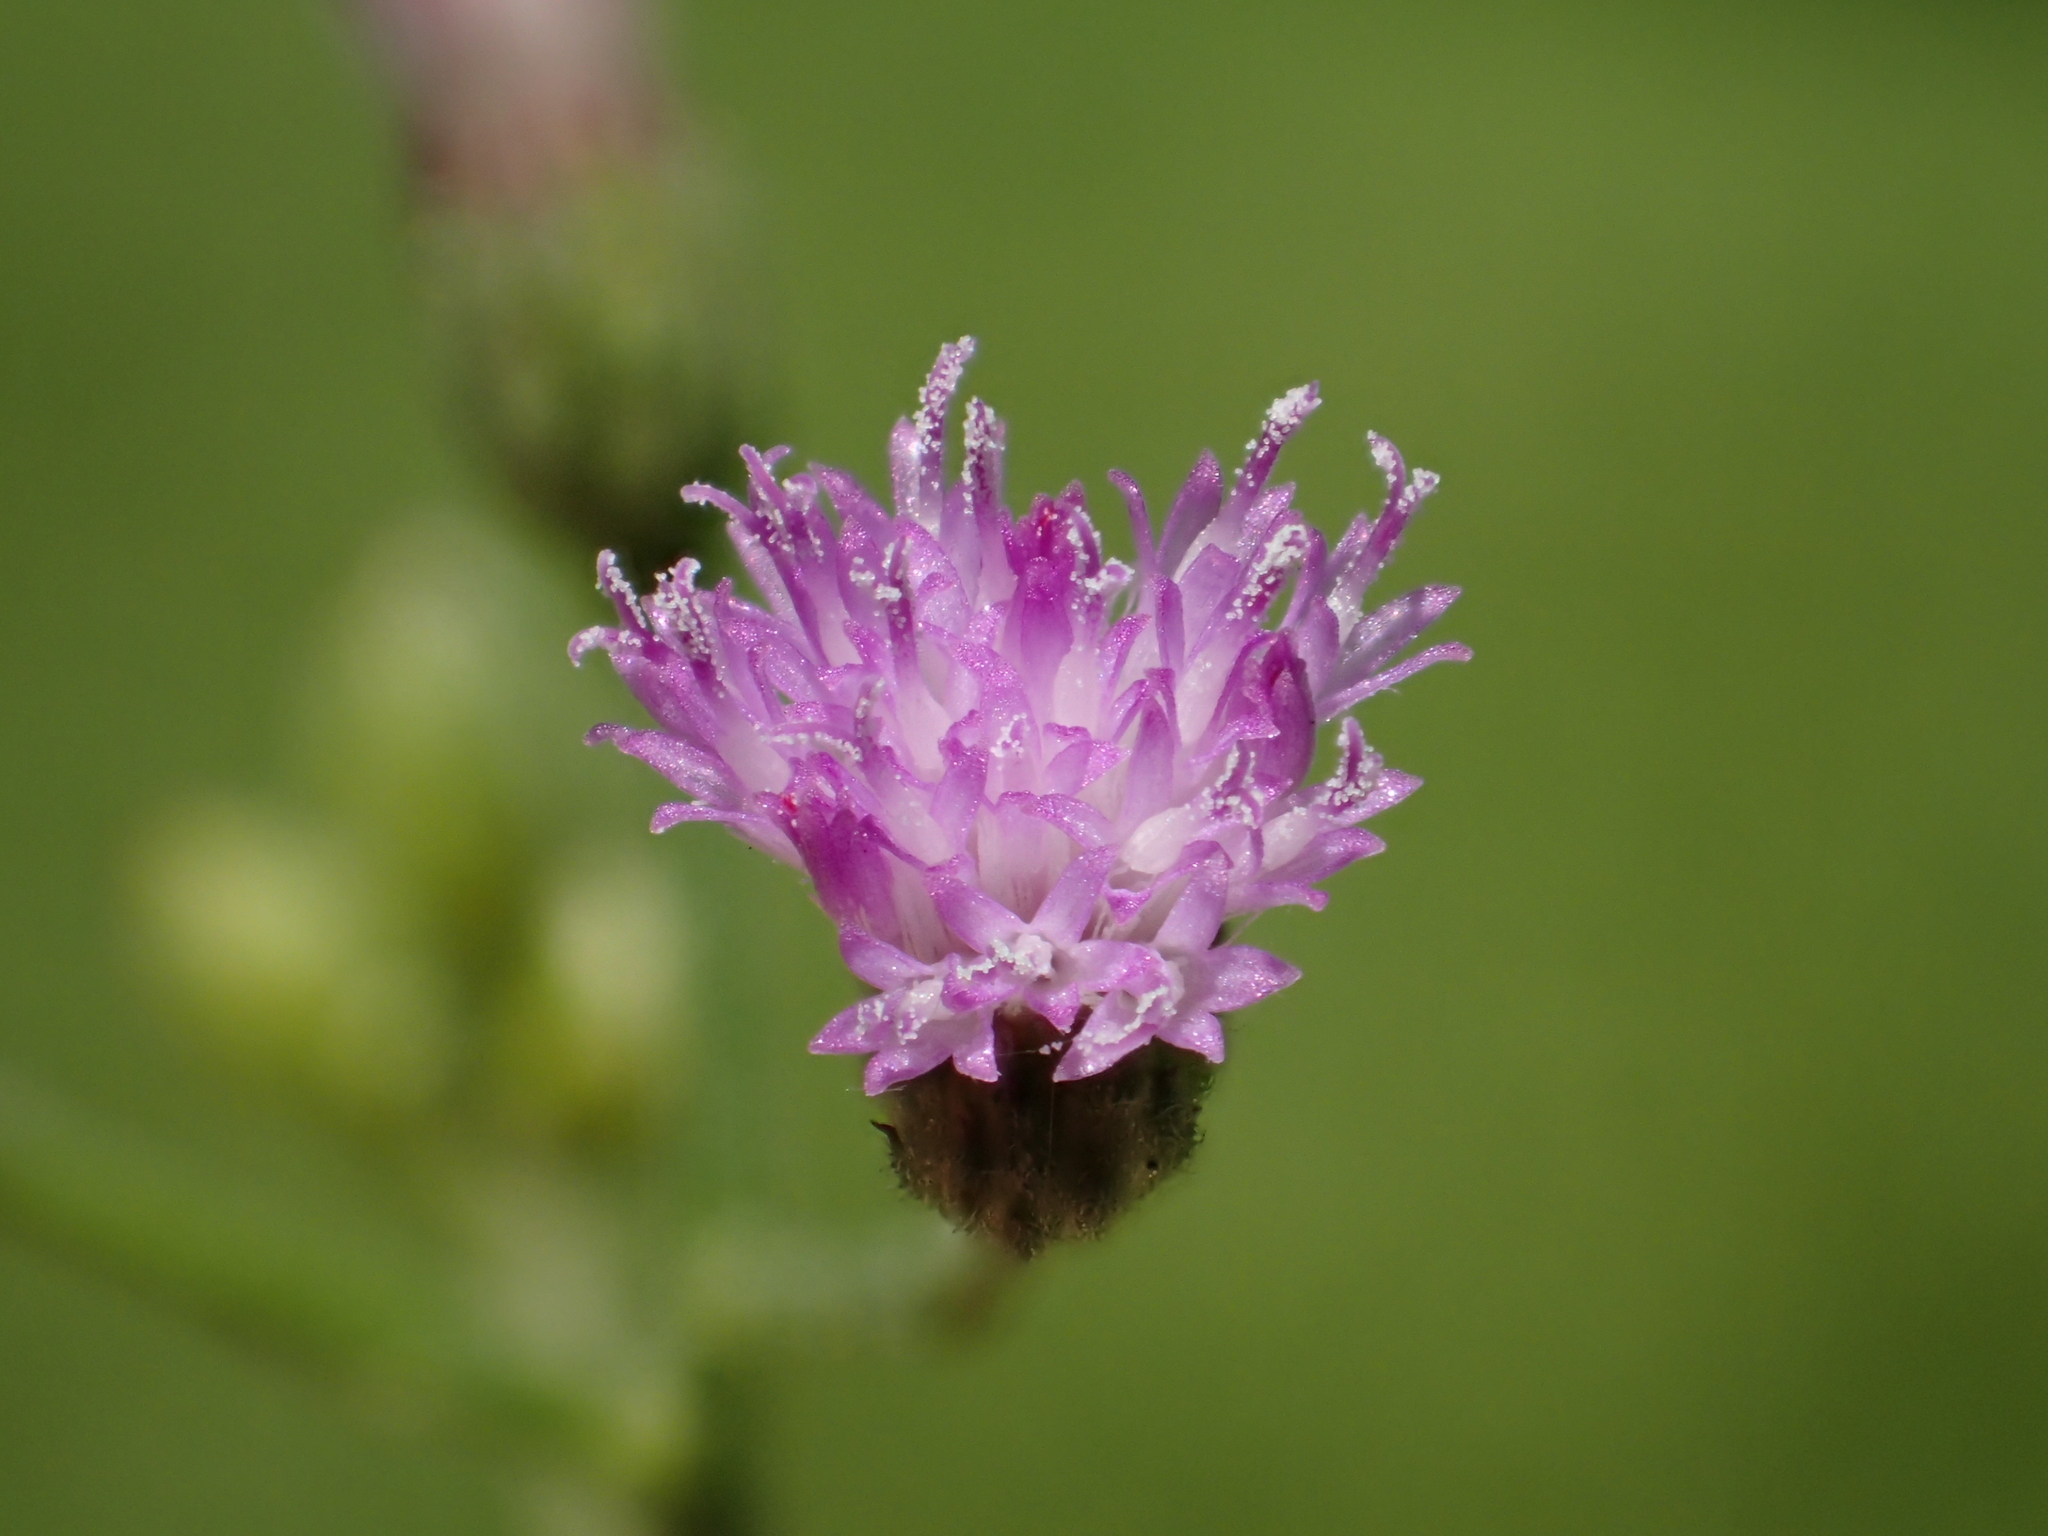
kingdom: Plantae
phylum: Tracheophyta
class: Magnoliopsida
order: Asterales
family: Asteraceae
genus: Cyanthillium
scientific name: Cyanthillium cinereum
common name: Little ironweed
